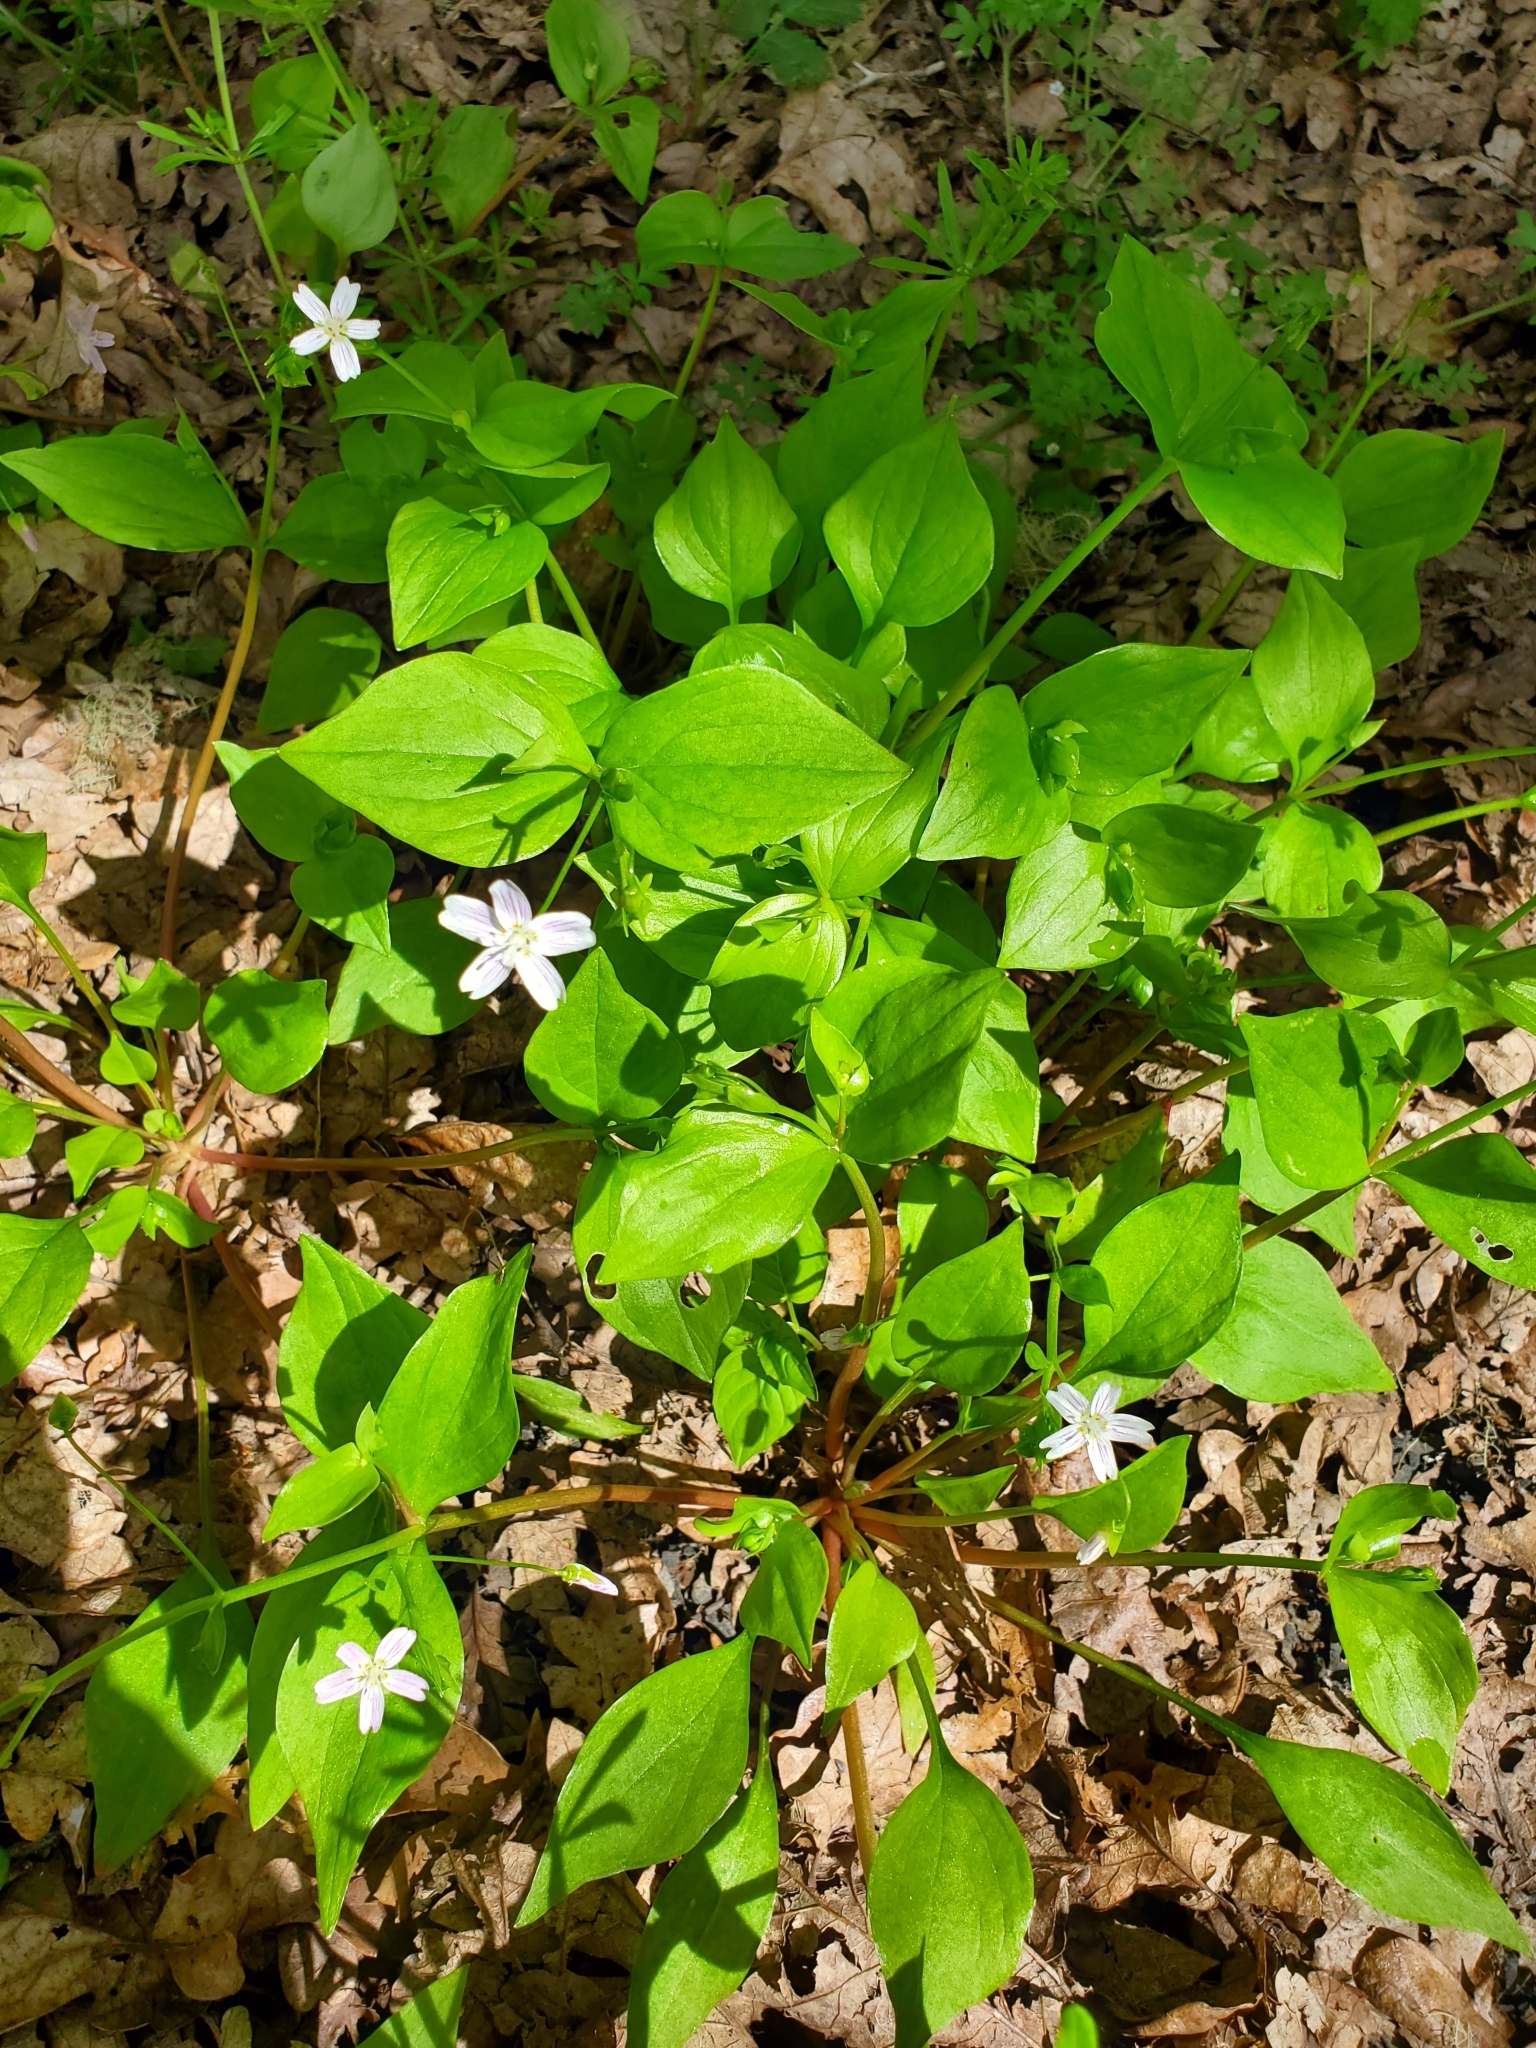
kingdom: Plantae
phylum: Tracheophyta
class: Magnoliopsida
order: Caryophyllales
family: Montiaceae
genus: Claytonia
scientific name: Claytonia sibirica
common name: Pink purslane
